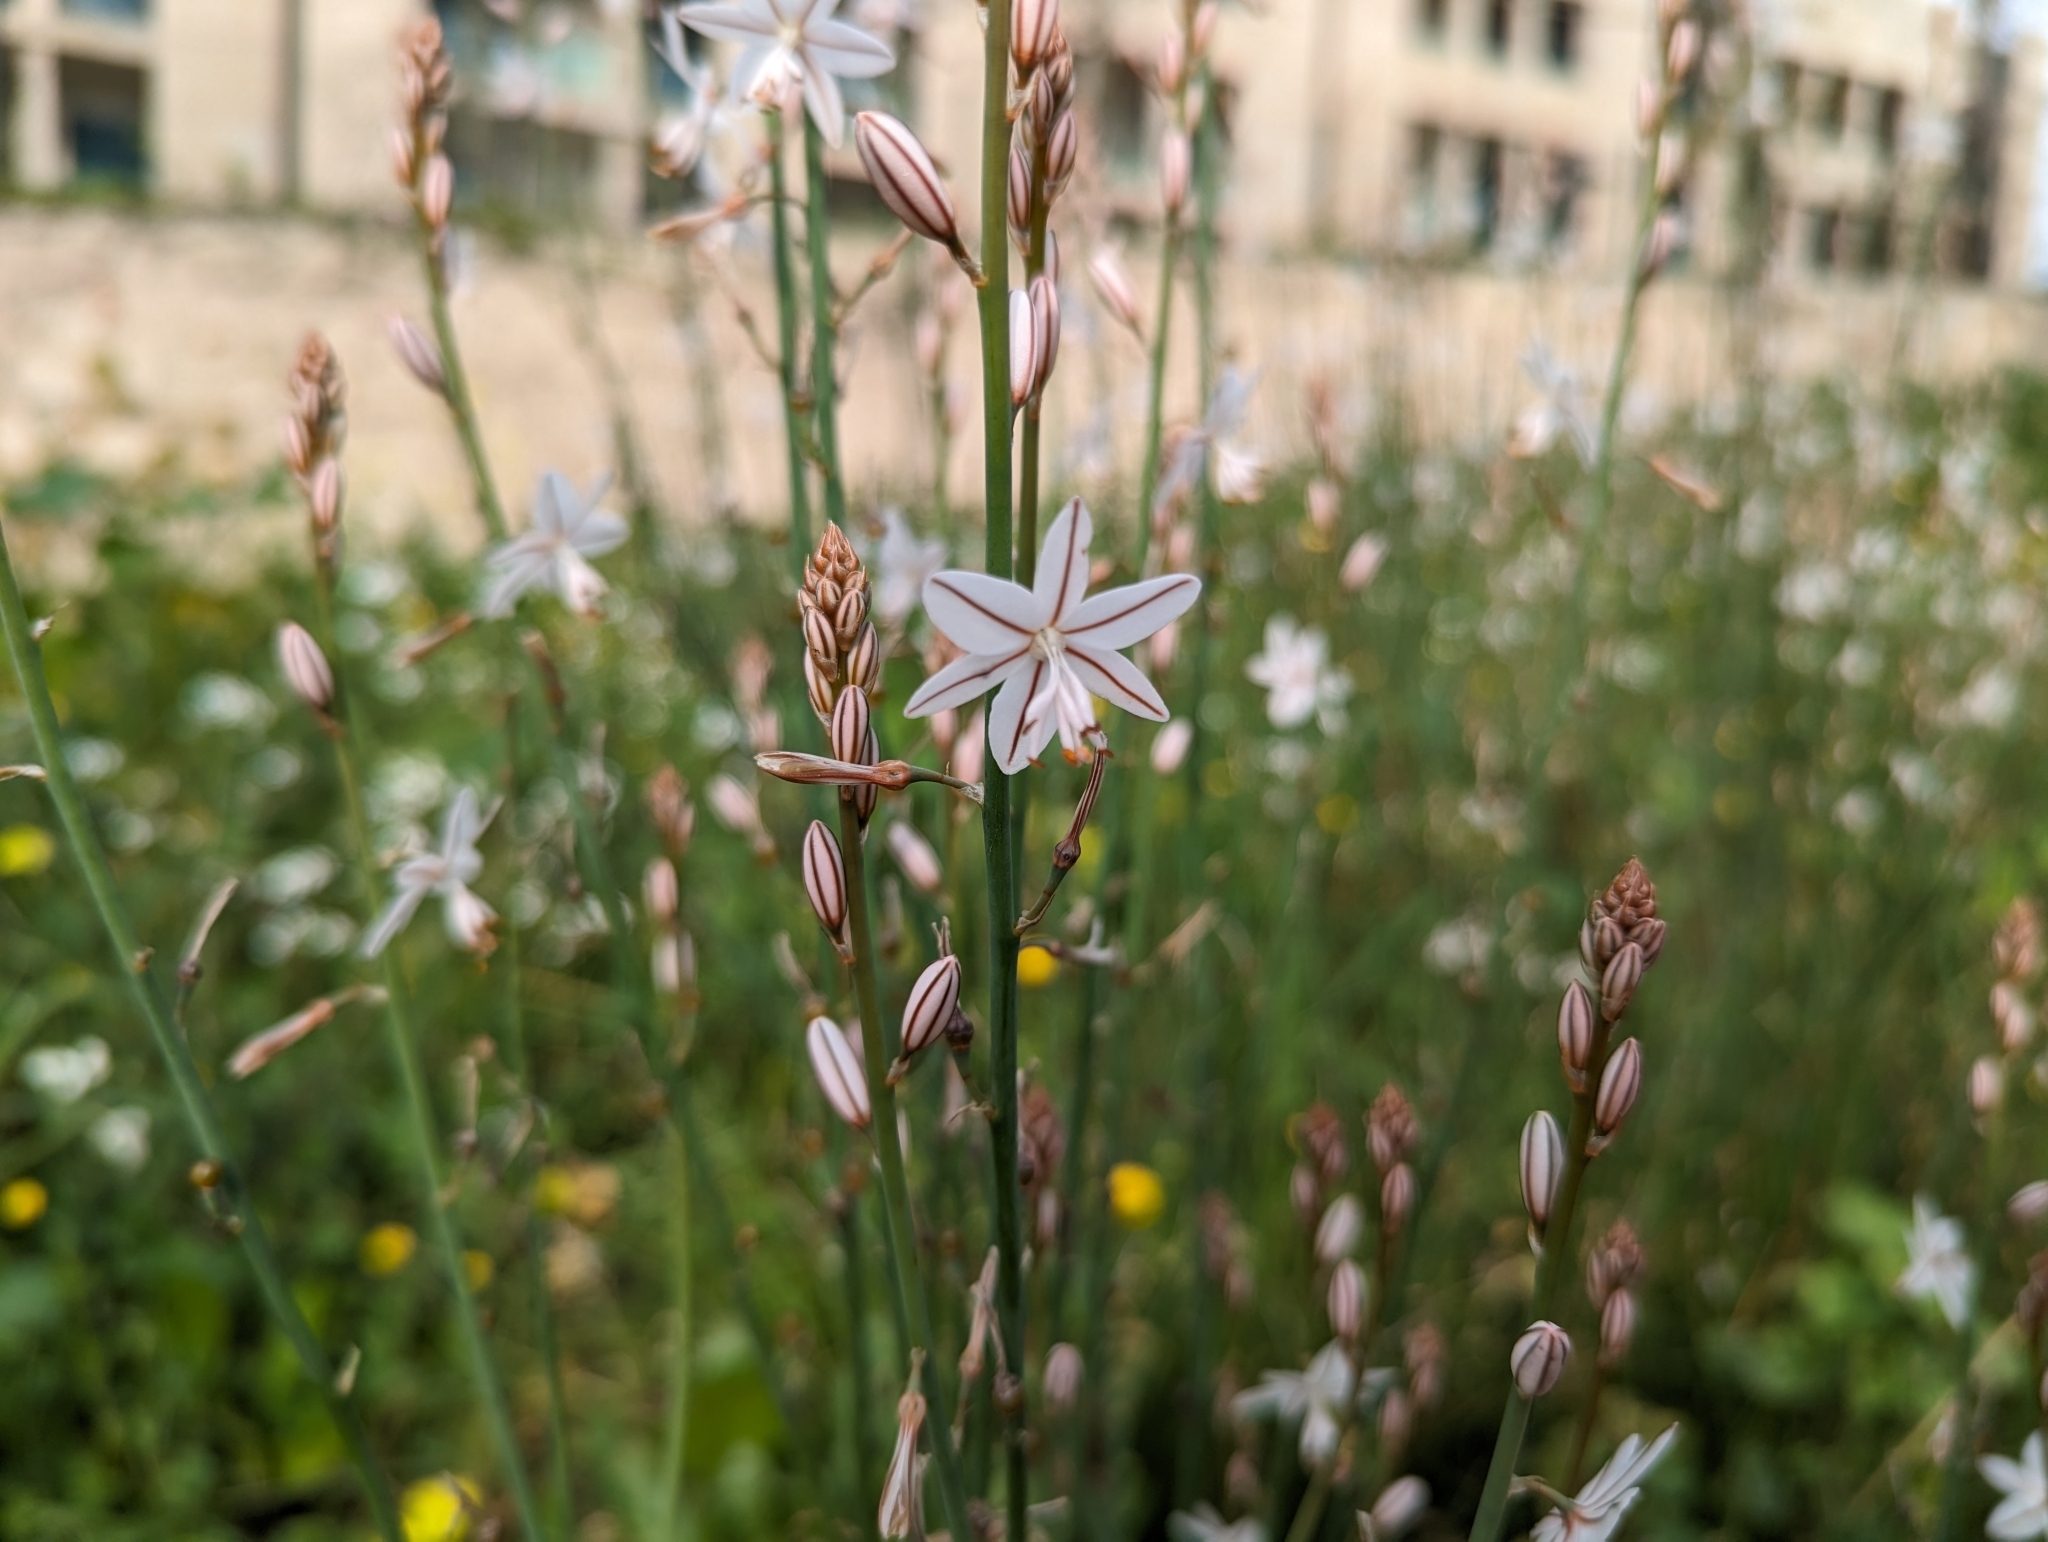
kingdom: Plantae
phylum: Tracheophyta
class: Liliopsida
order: Asparagales
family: Asphodelaceae
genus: Asphodelus
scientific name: Asphodelus fistulosus
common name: Onionweed
